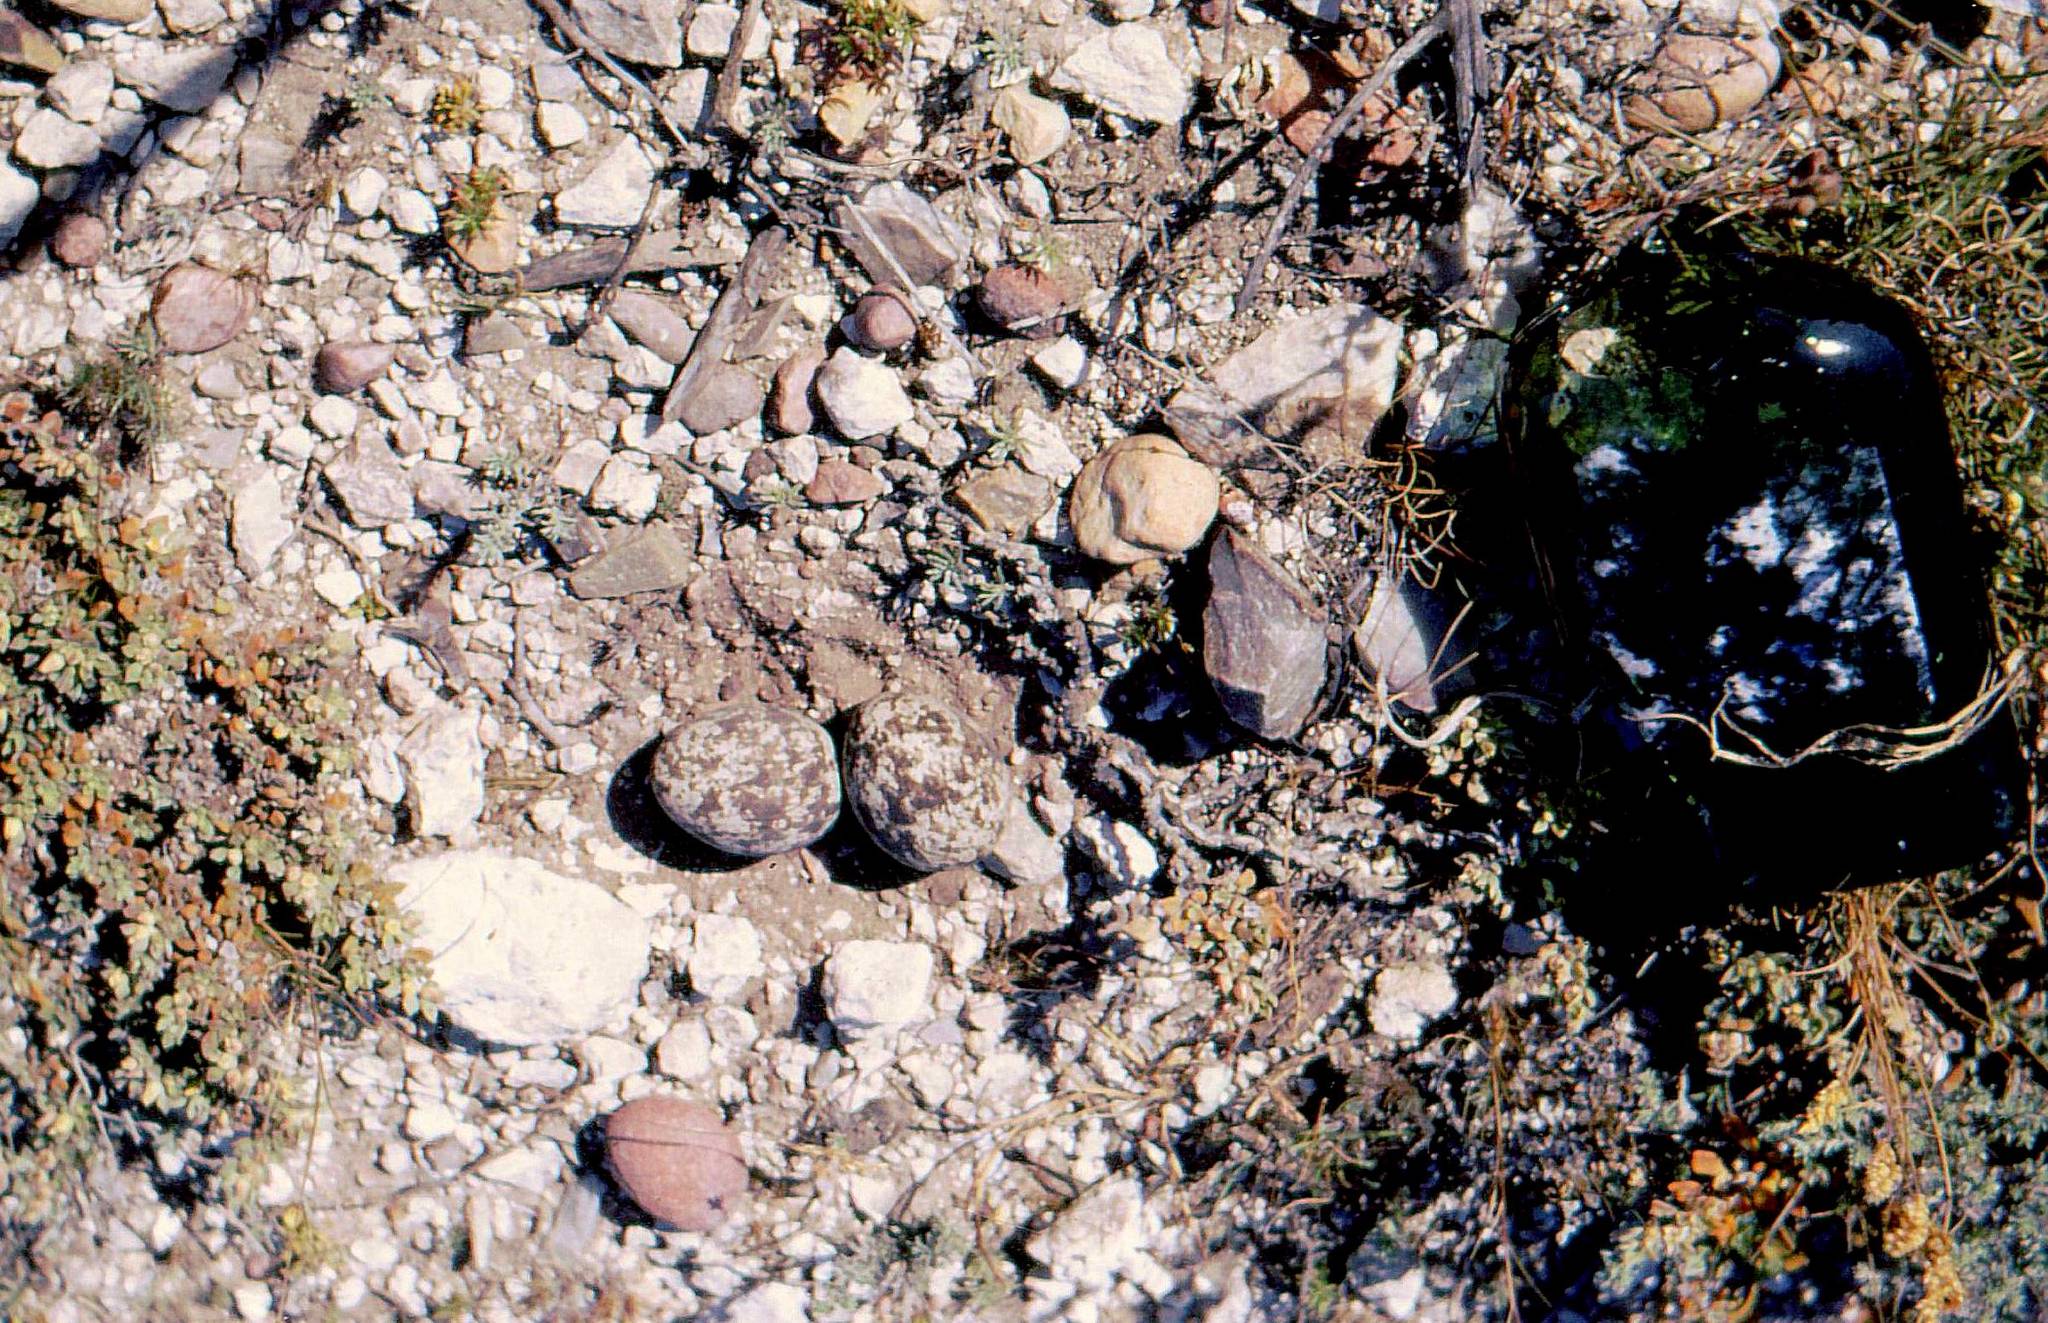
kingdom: Animalia
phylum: Chordata
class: Aves
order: Charadriiformes
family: Burhinidae
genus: Burhinus
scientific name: Burhinus capensis
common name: Spotted thick-knee
